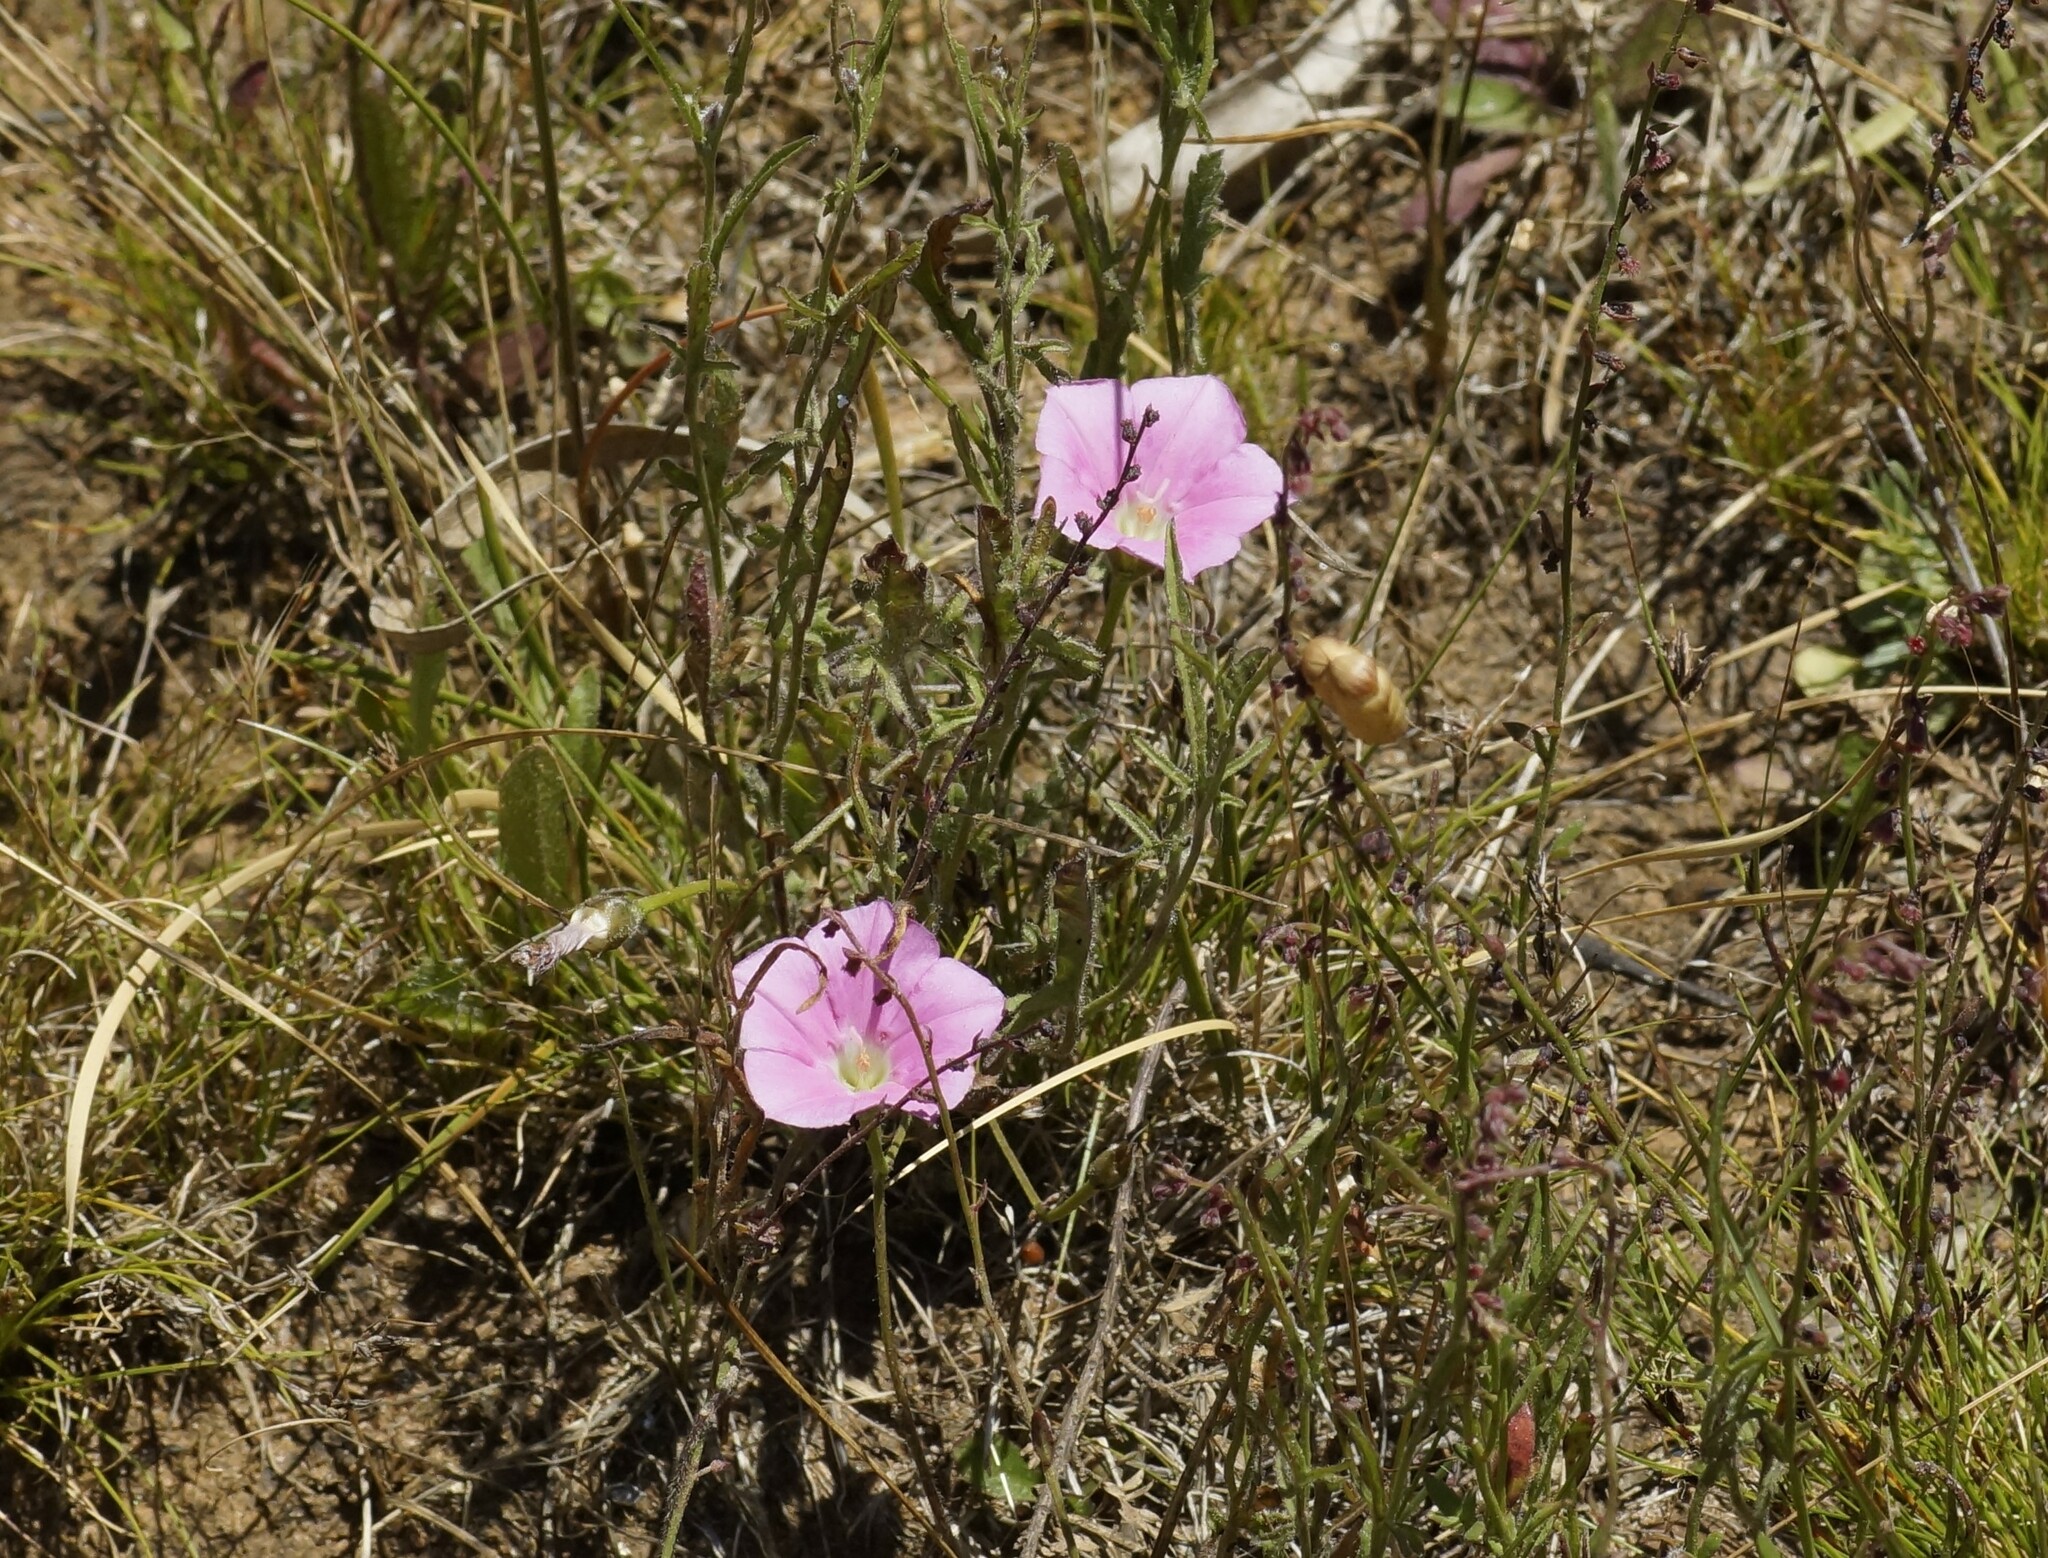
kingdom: Plantae
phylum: Tracheophyta
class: Magnoliopsida
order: Solanales
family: Convolvulaceae
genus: Convolvulus
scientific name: Convolvulus angustissimus
